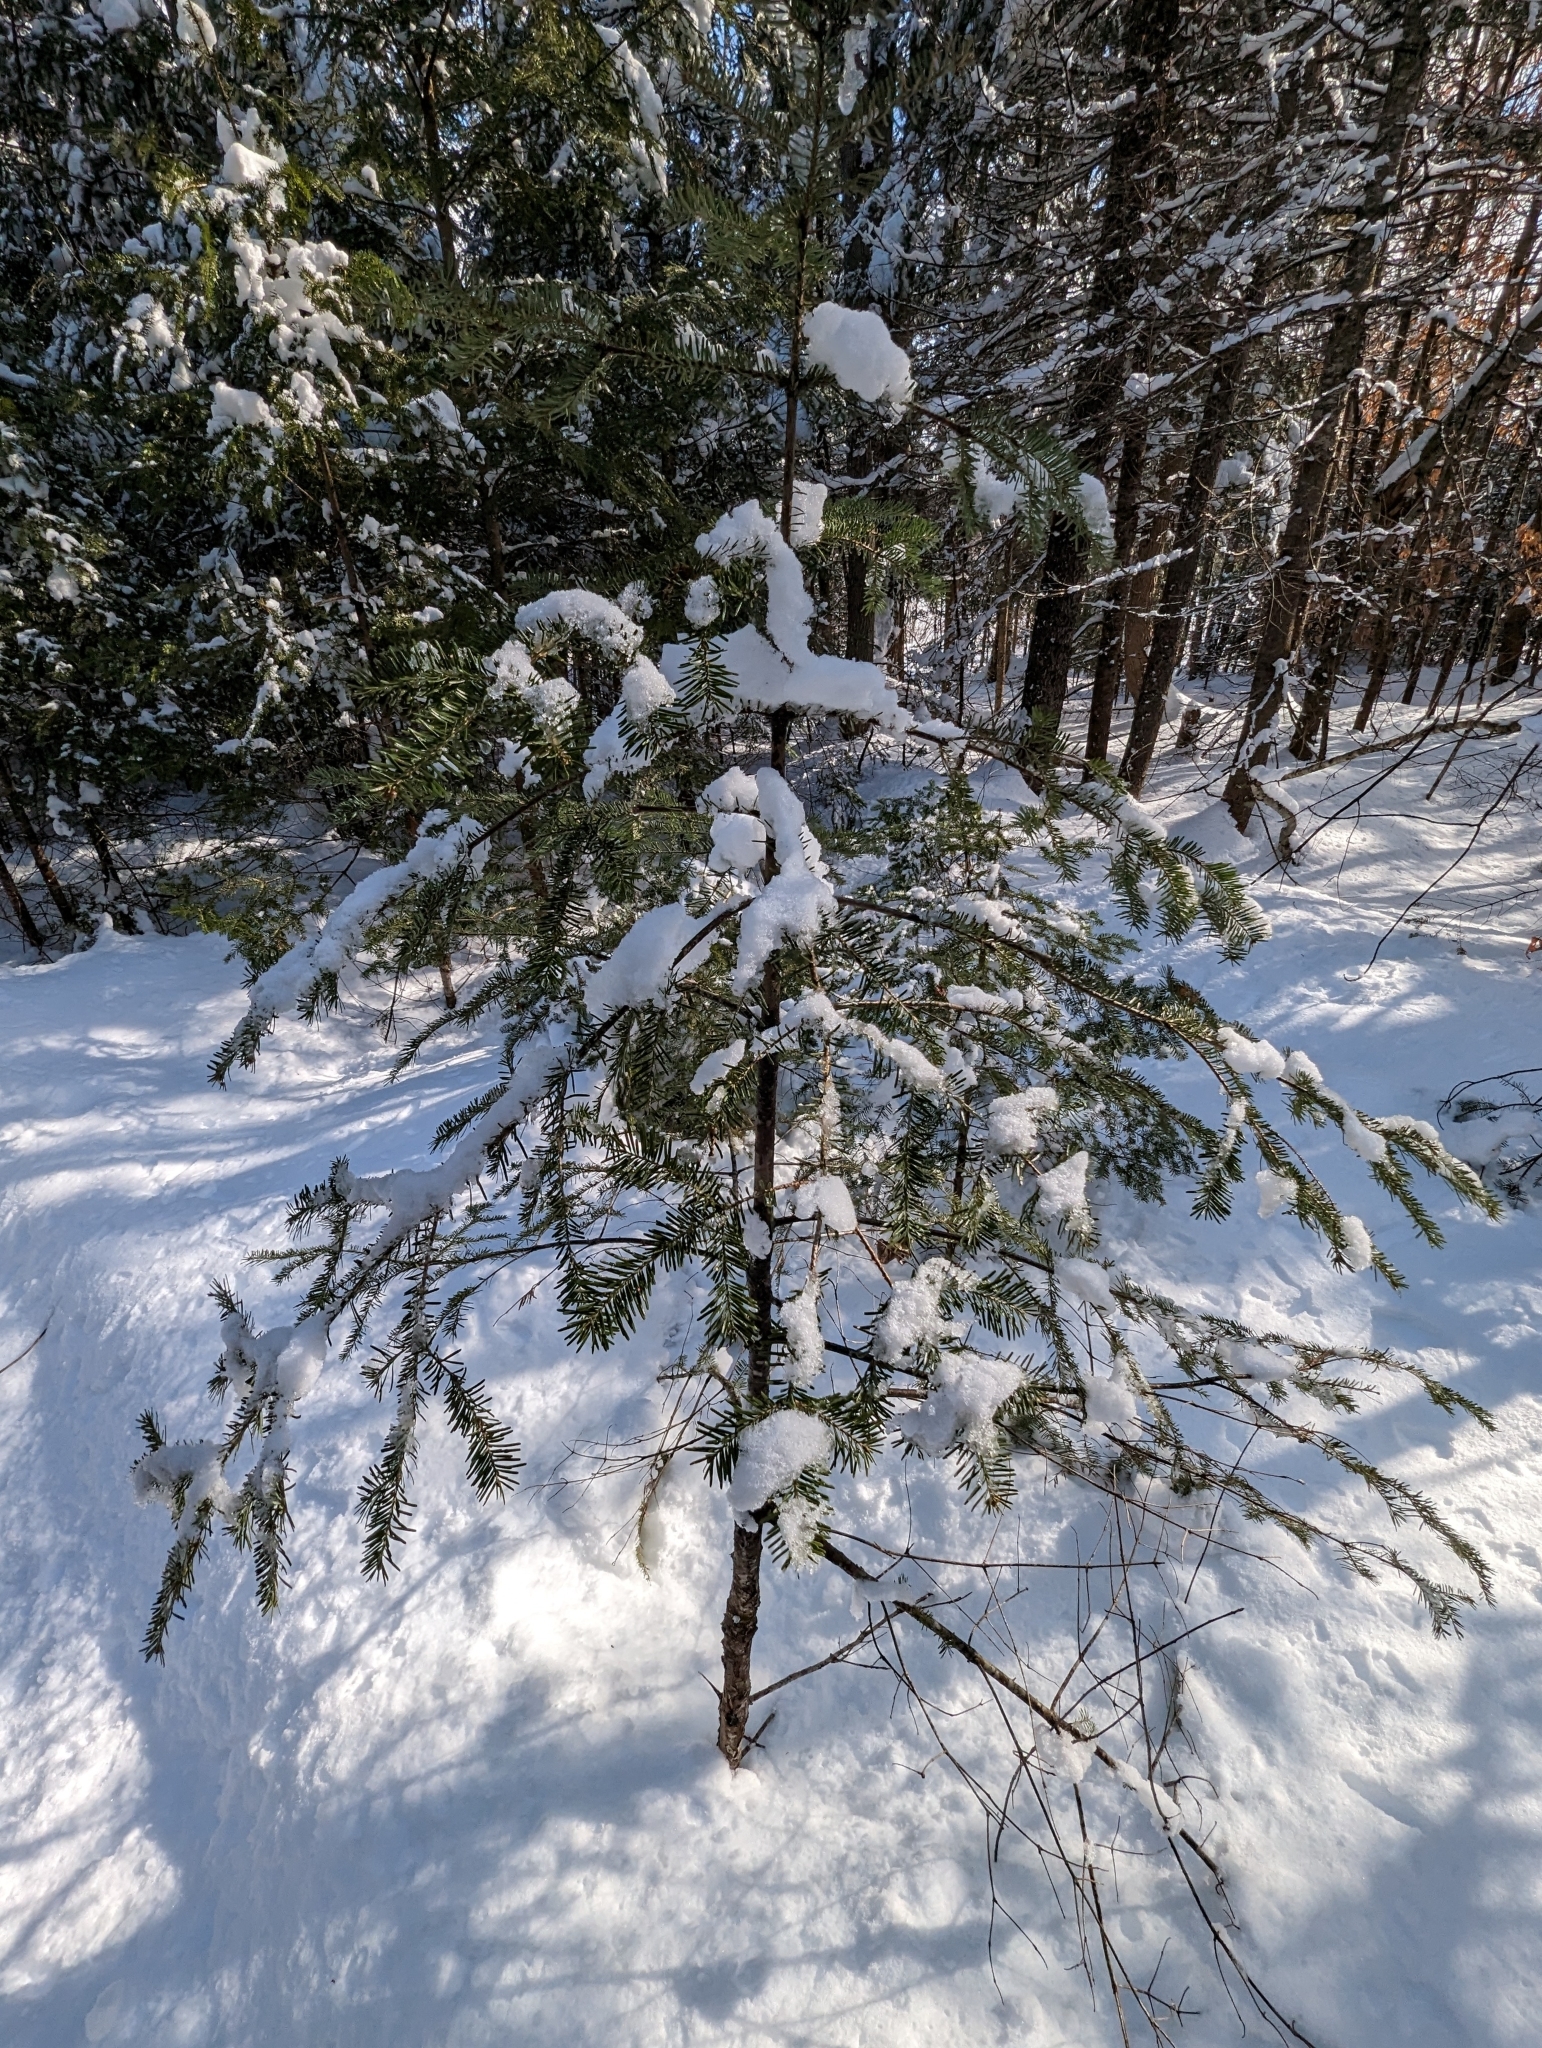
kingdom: Plantae
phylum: Tracheophyta
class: Pinopsida
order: Pinales
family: Pinaceae
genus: Abies
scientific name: Abies balsamea
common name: Balsam fir
